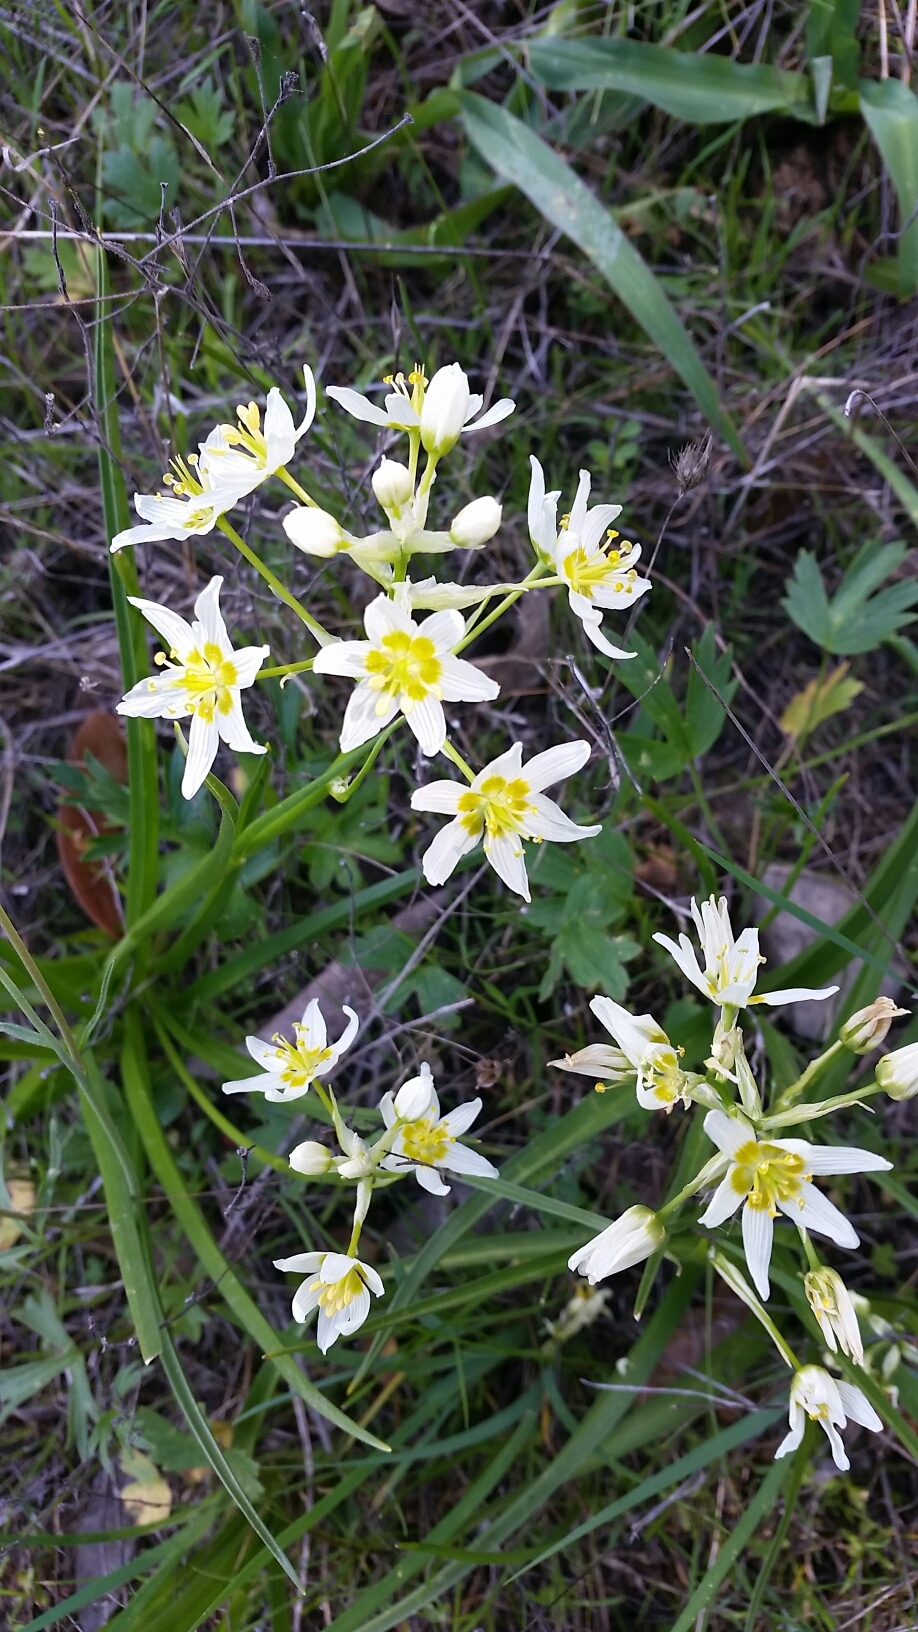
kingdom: Plantae
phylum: Tracheophyta
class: Liliopsida
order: Liliales
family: Melanthiaceae
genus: Toxicoscordion
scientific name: Toxicoscordion fremontii
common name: Fremont's death camas
